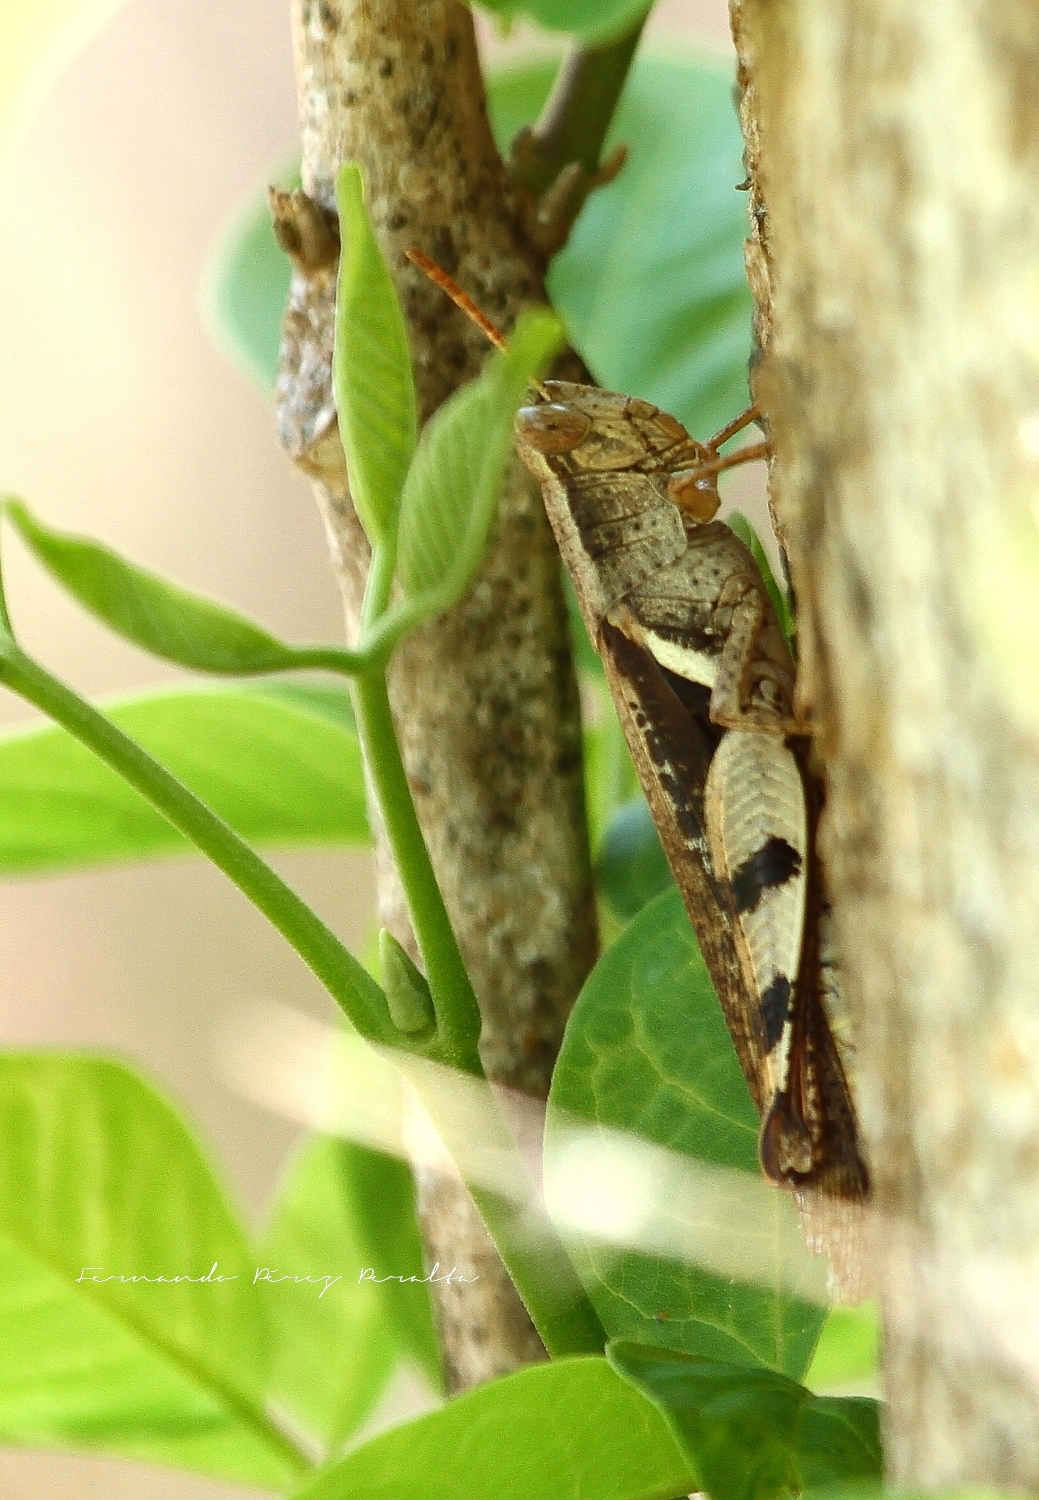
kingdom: Animalia
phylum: Arthropoda
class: Insecta
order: Orthoptera
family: Acrididae
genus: Stenocatantops
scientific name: Stenocatantops angustifrons
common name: Common tropical sharptail
